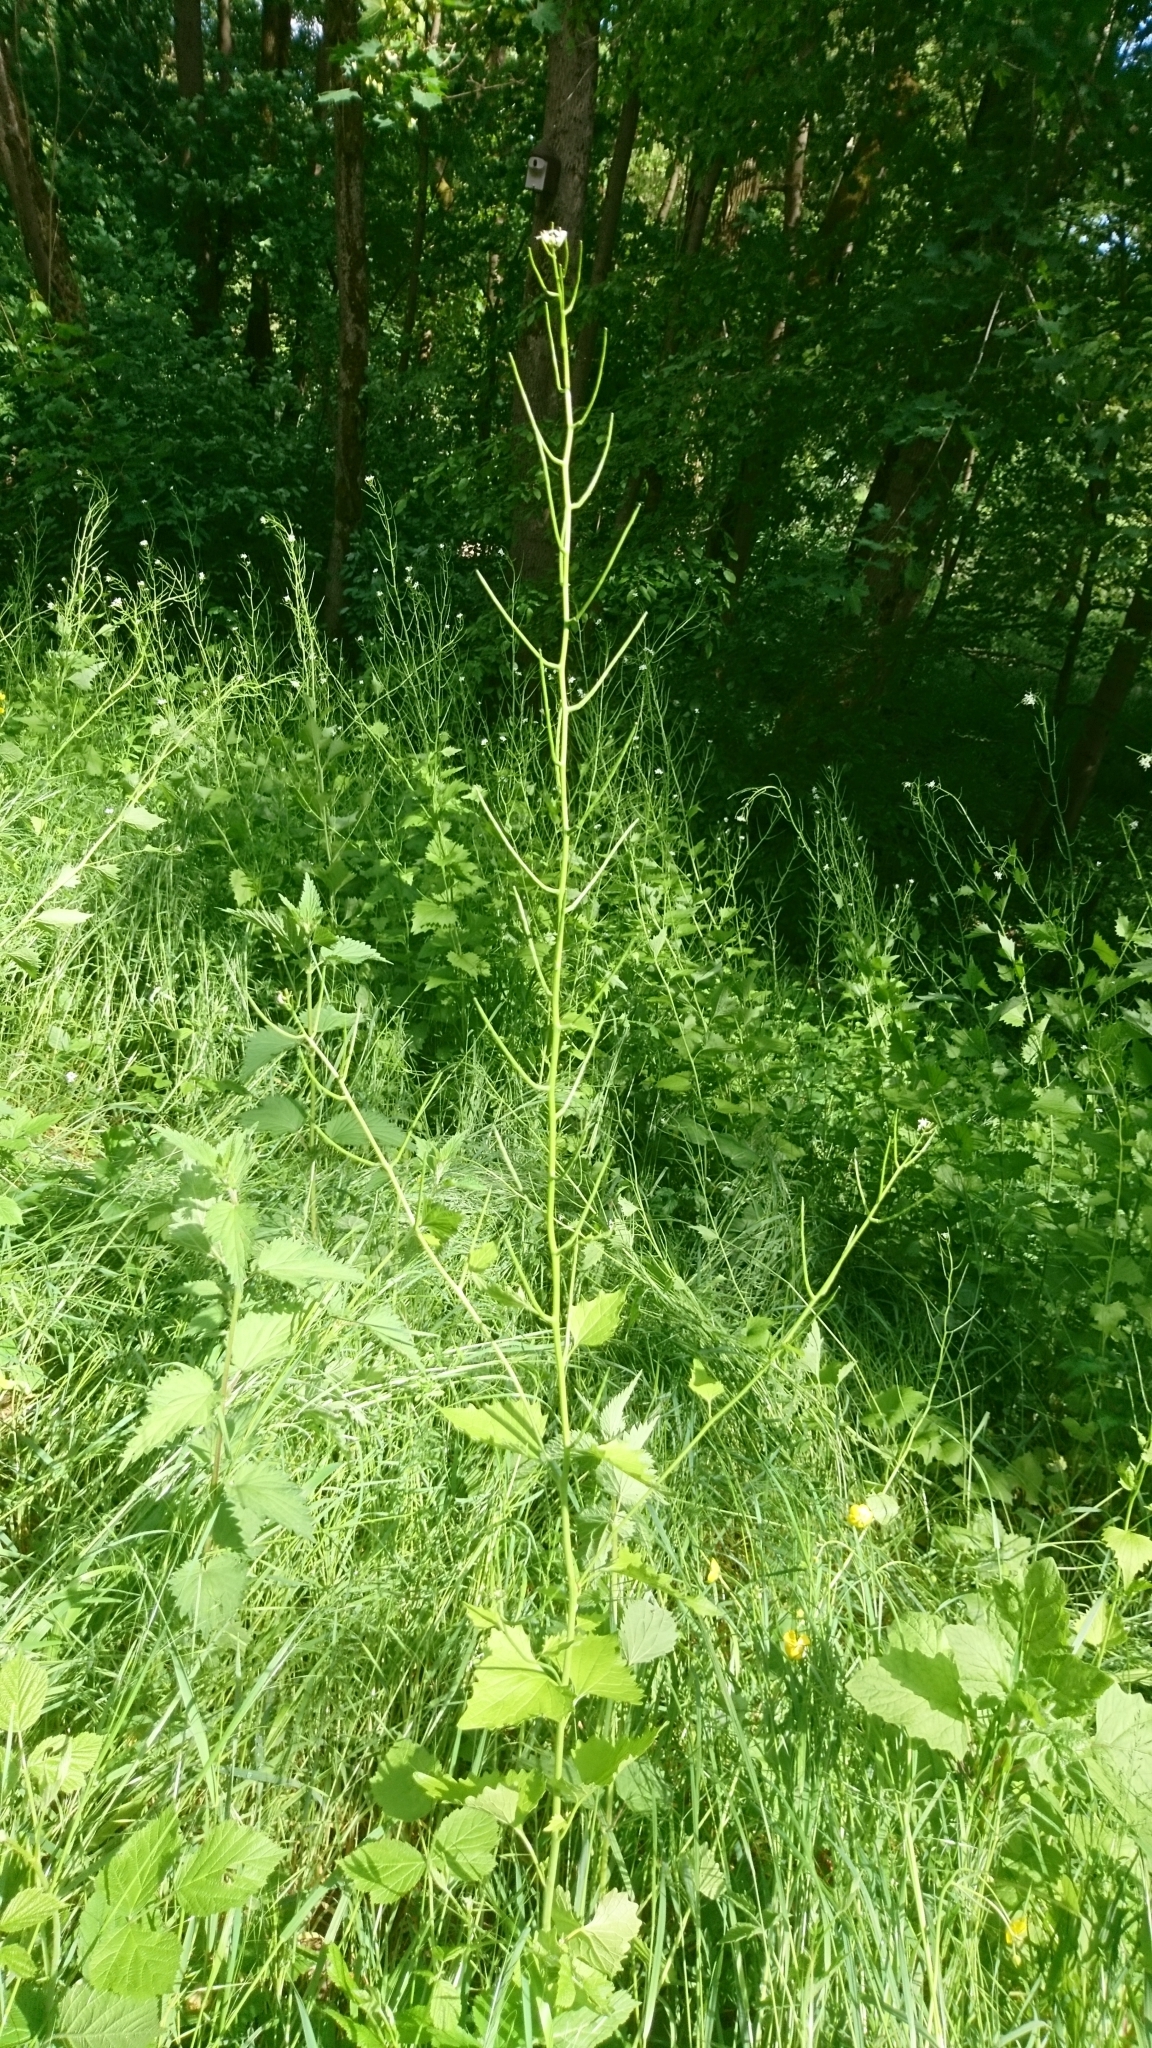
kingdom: Plantae
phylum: Tracheophyta
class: Magnoliopsida
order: Brassicales
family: Brassicaceae
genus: Alliaria
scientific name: Alliaria petiolata
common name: Garlic mustard
